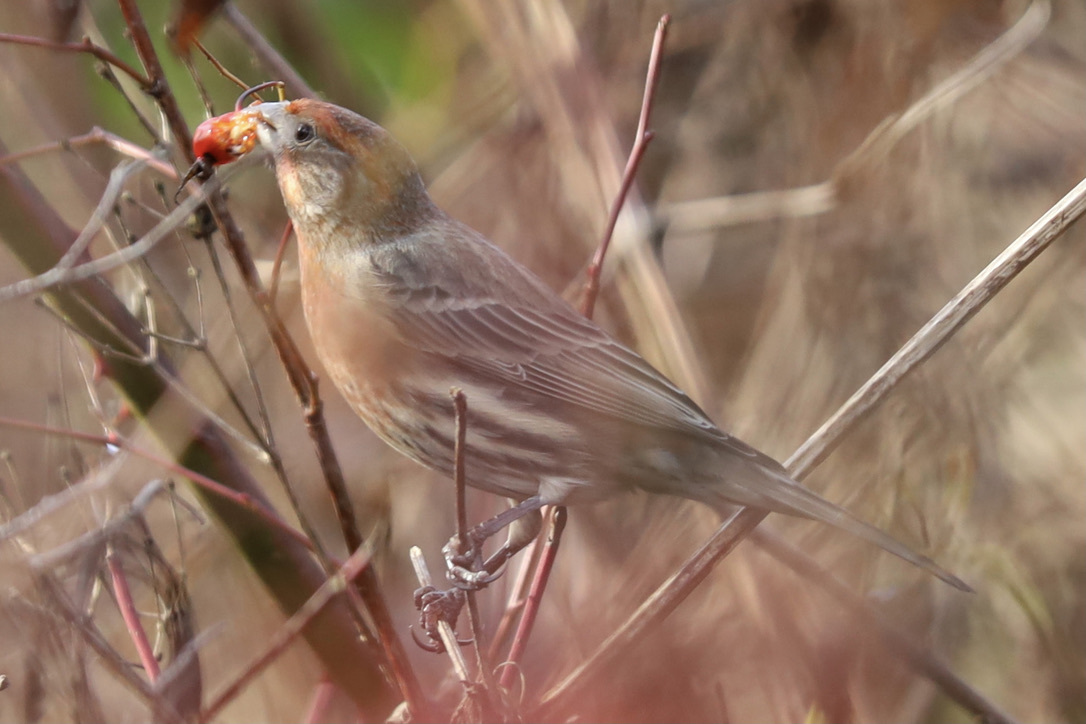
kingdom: Animalia
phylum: Chordata
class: Aves
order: Passeriformes
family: Fringillidae
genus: Haemorhous
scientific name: Haemorhous mexicanus
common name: House finch
